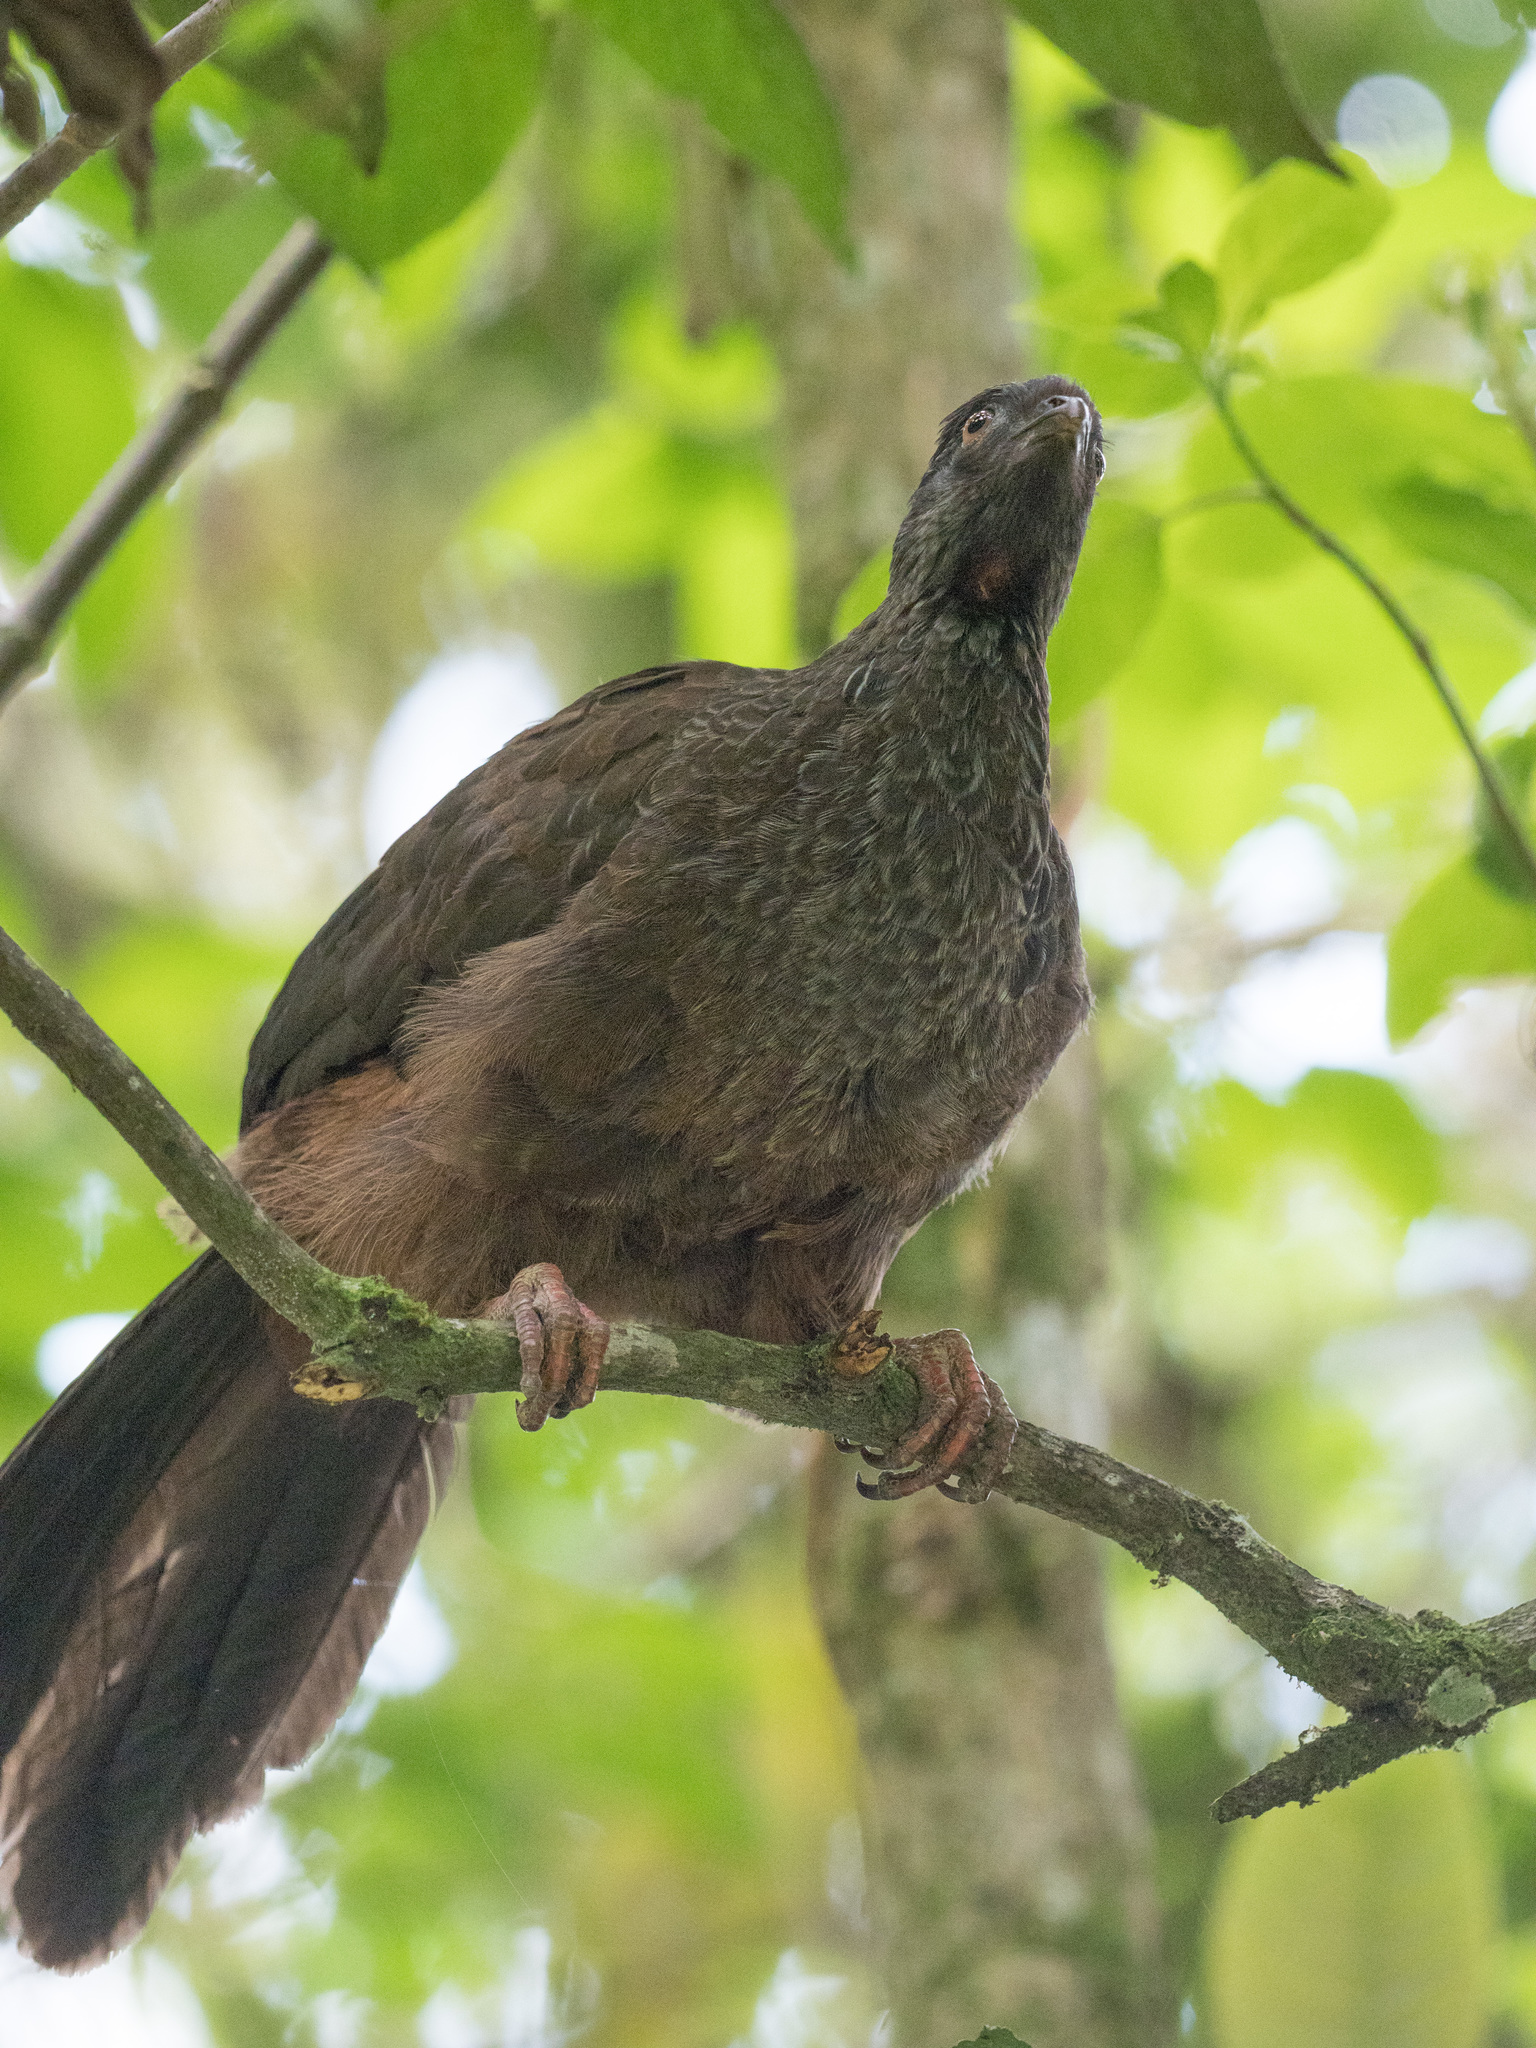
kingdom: Animalia
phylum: Chordata
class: Aves
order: Galliformes
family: Cracidae
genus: Penelope
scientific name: Penelope montagnii
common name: Andean guan
